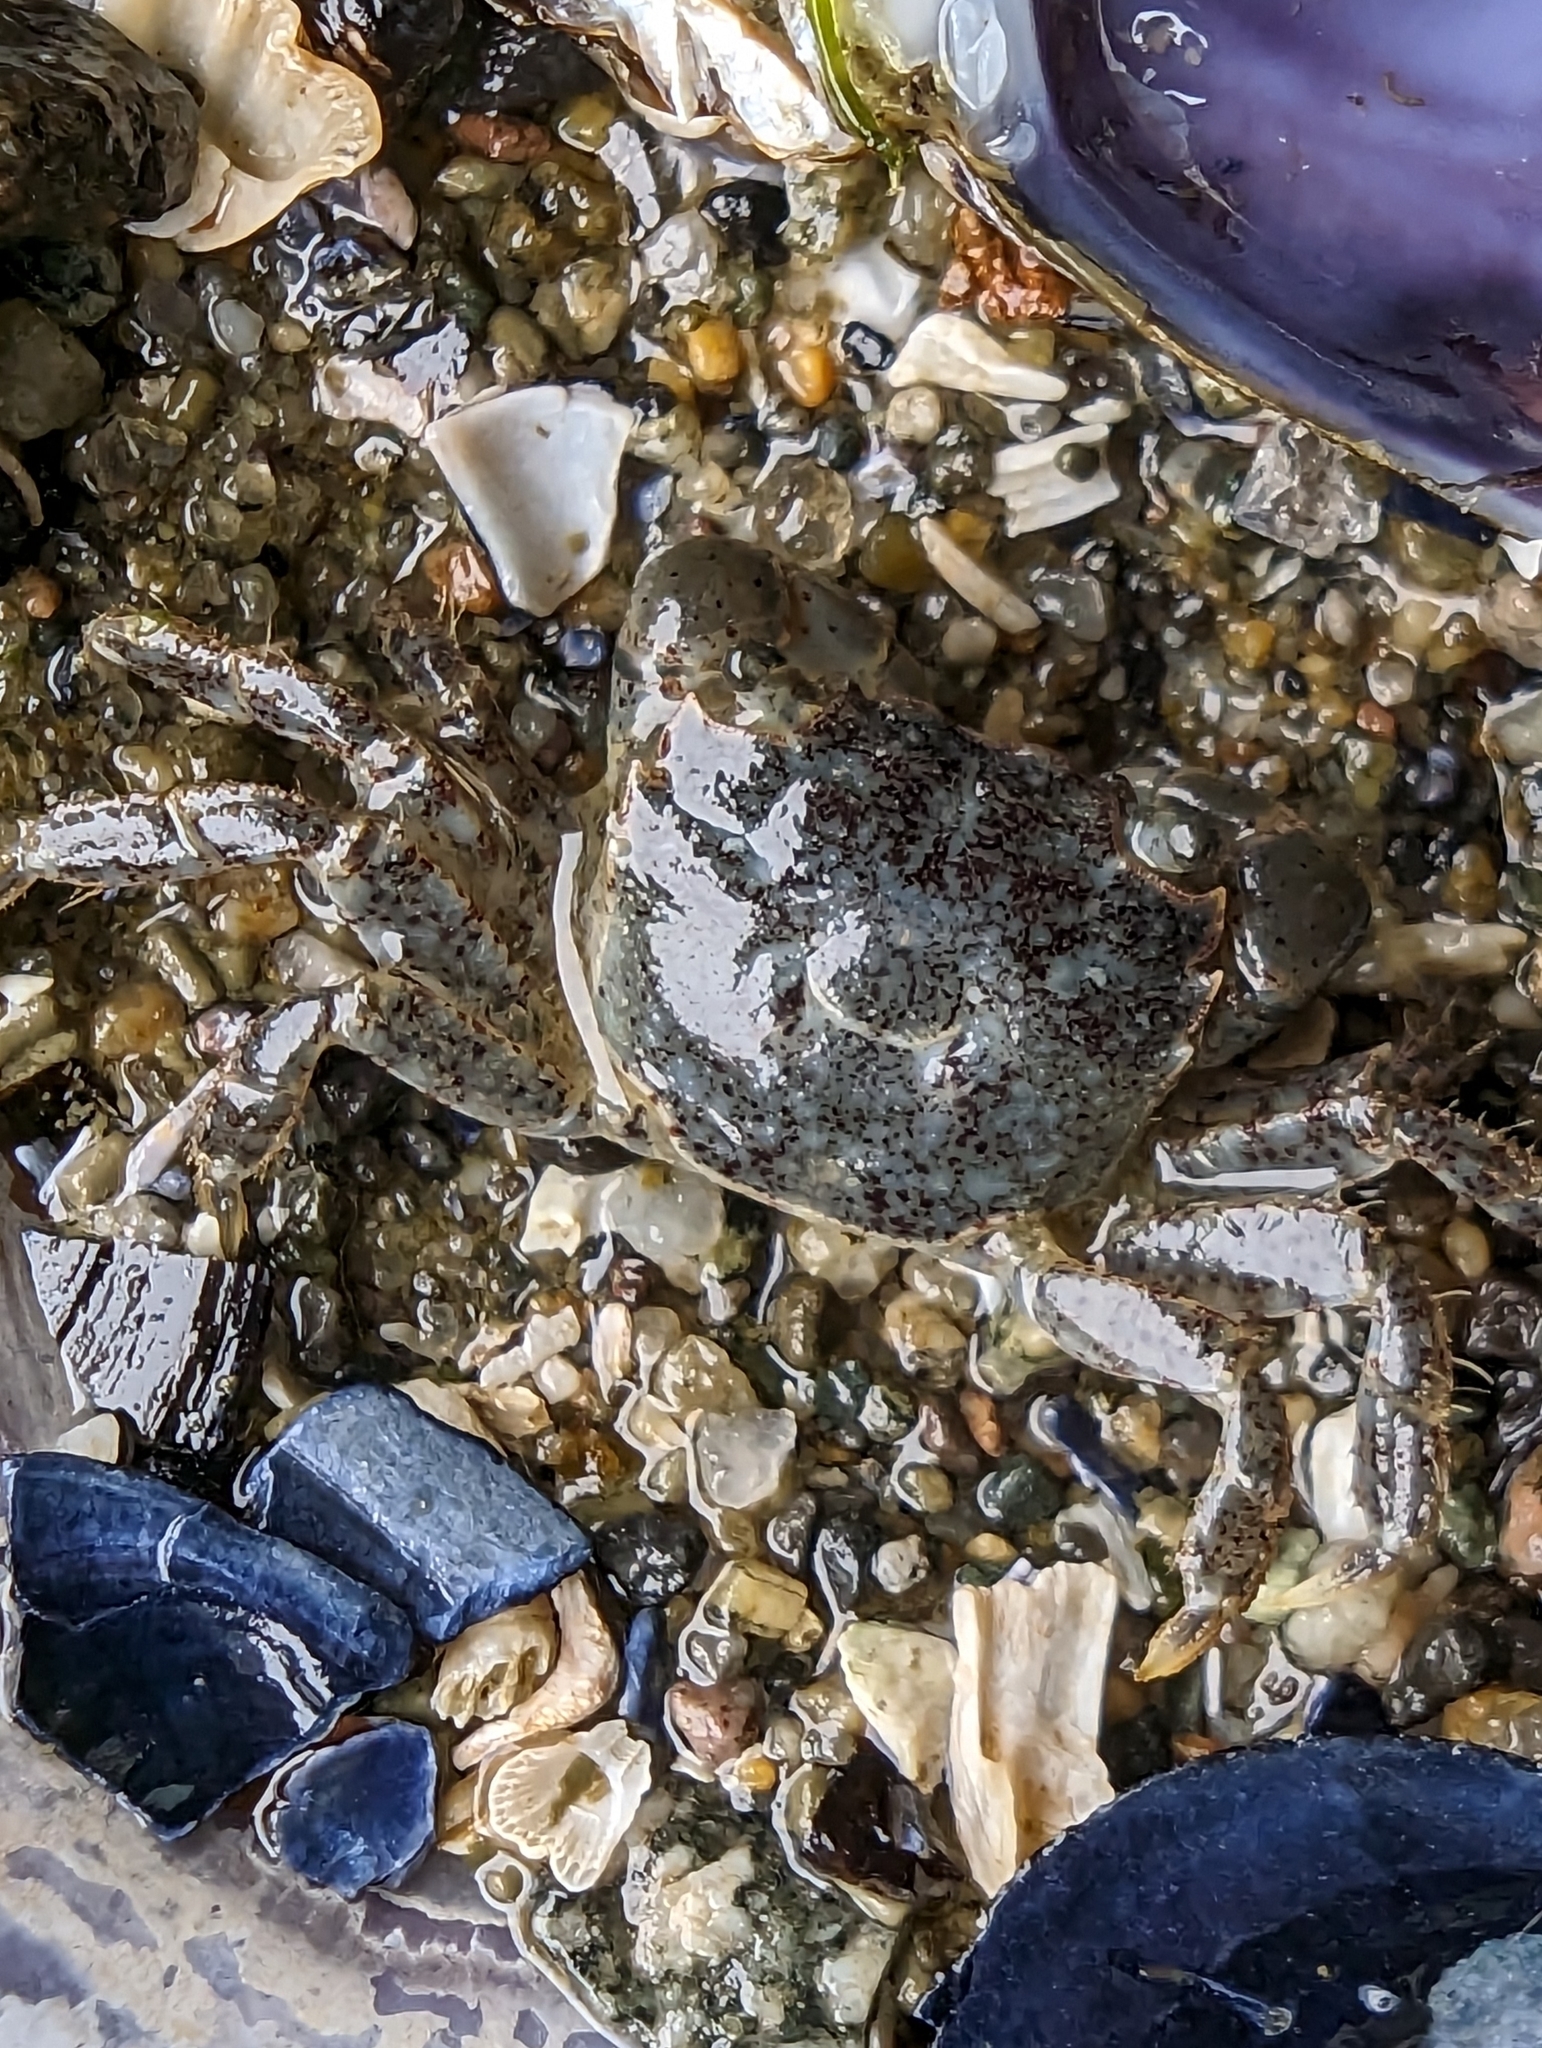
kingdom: Animalia
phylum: Arthropoda
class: Malacostraca
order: Decapoda
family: Varunidae
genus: Hemigrapsus
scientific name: Hemigrapsus oregonensis
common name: Yellow shore crab
